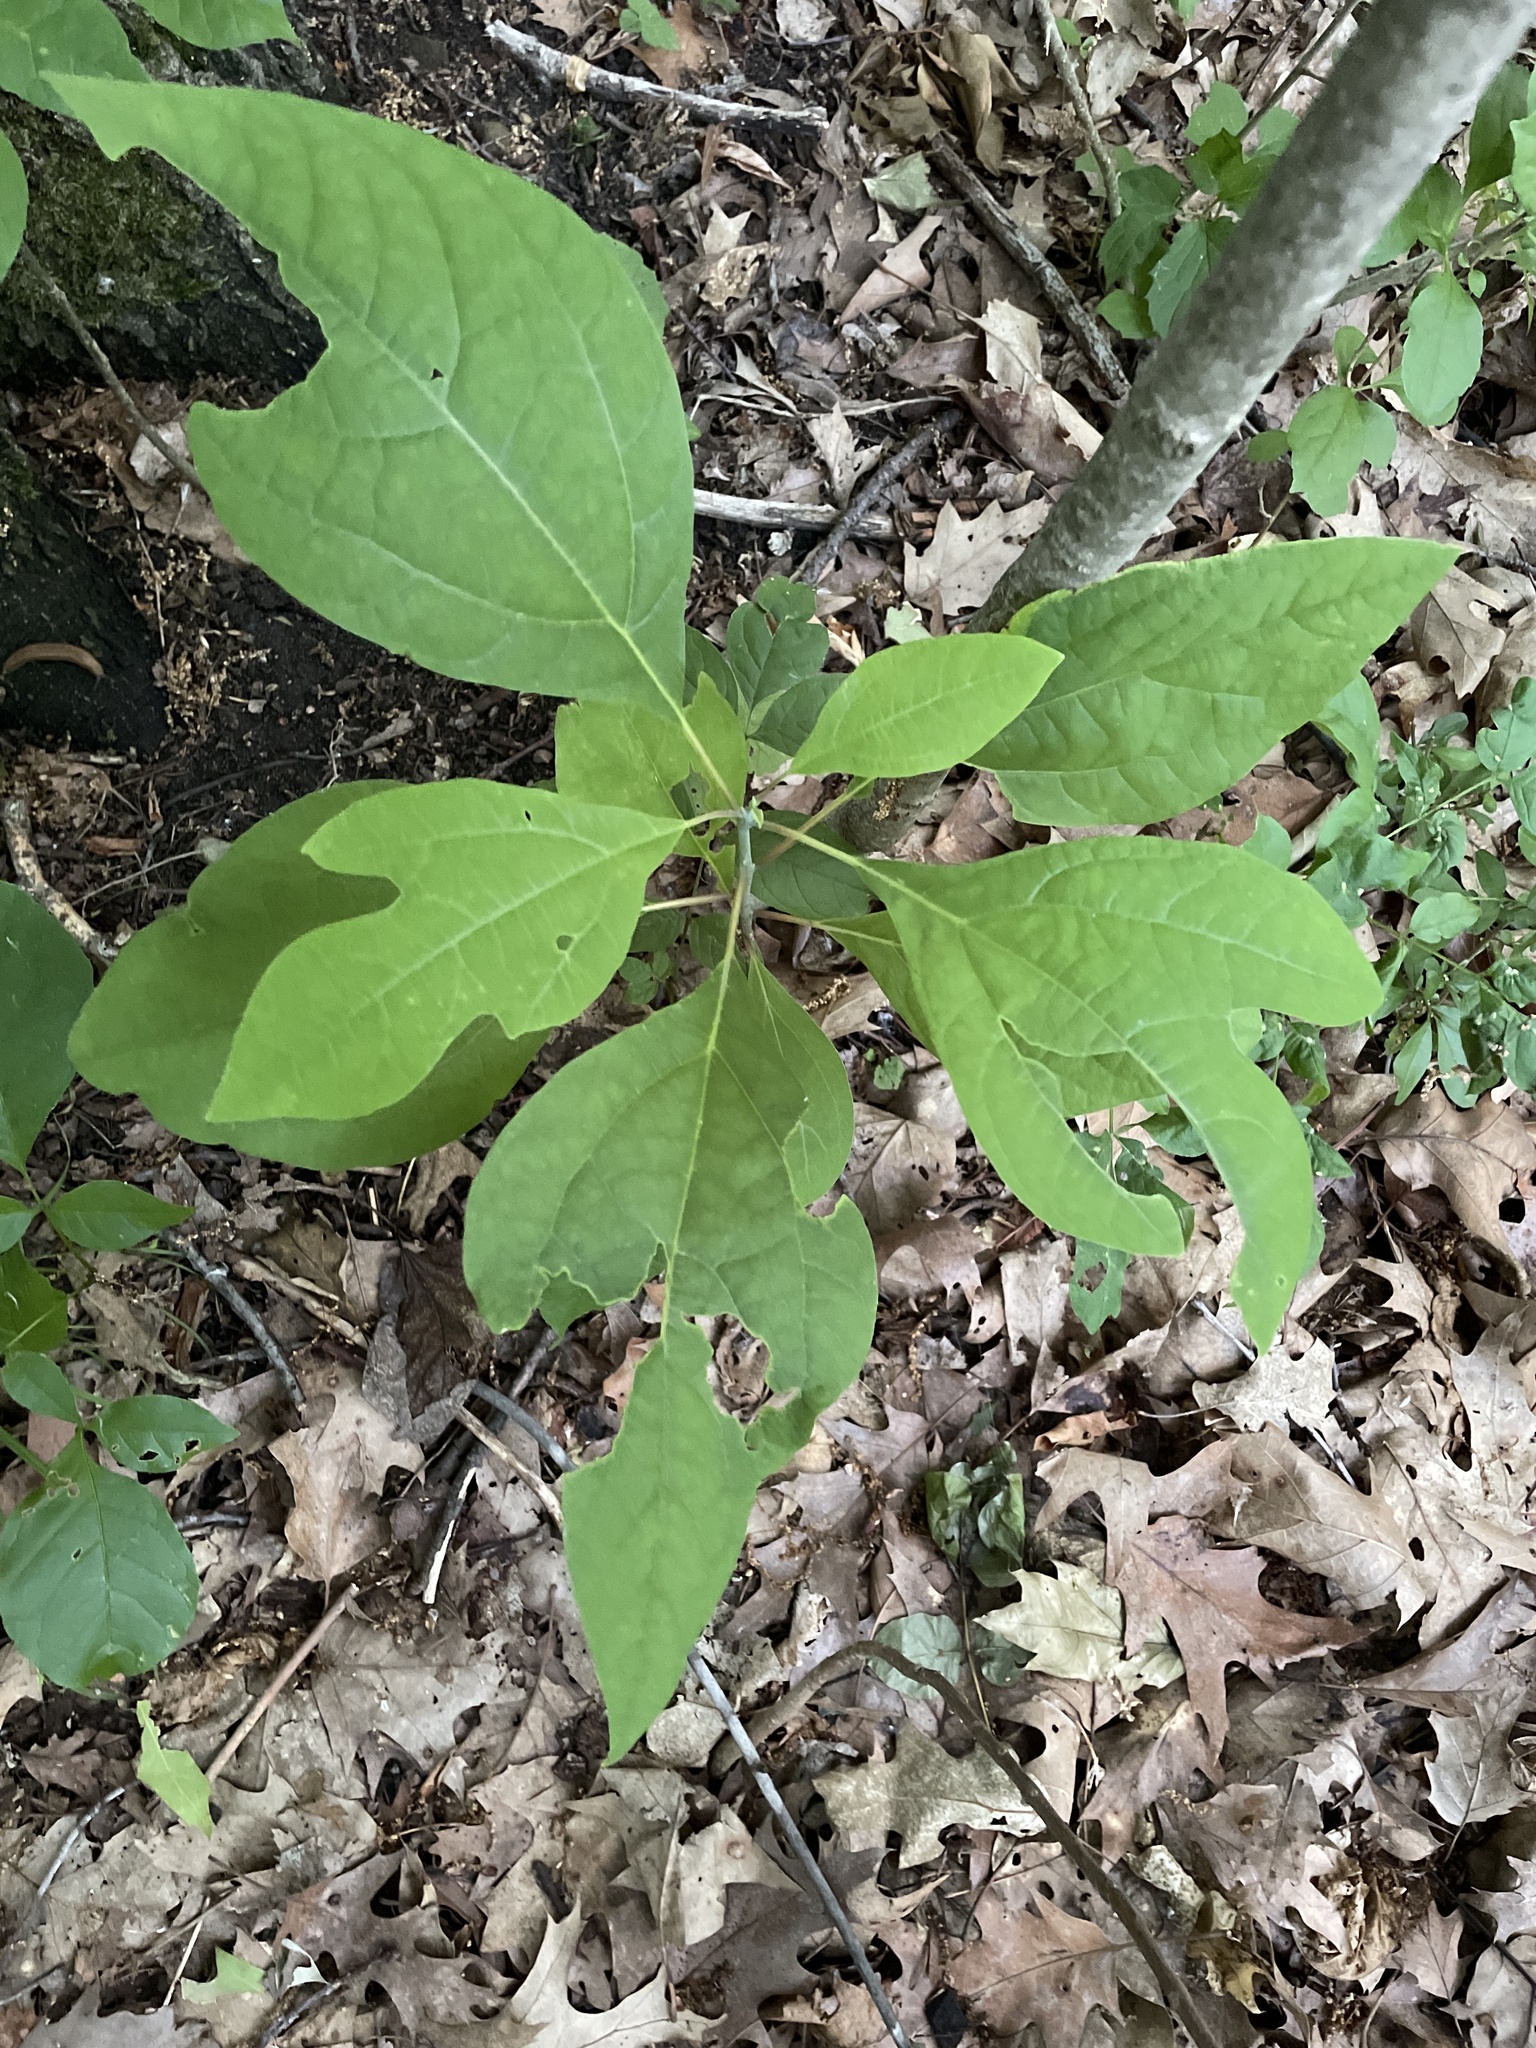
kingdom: Plantae
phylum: Tracheophyta
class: Magnoliopsida
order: Laurales
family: Lauraceae
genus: Sassafras
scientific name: Sassafras albidum
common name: Sassafras
